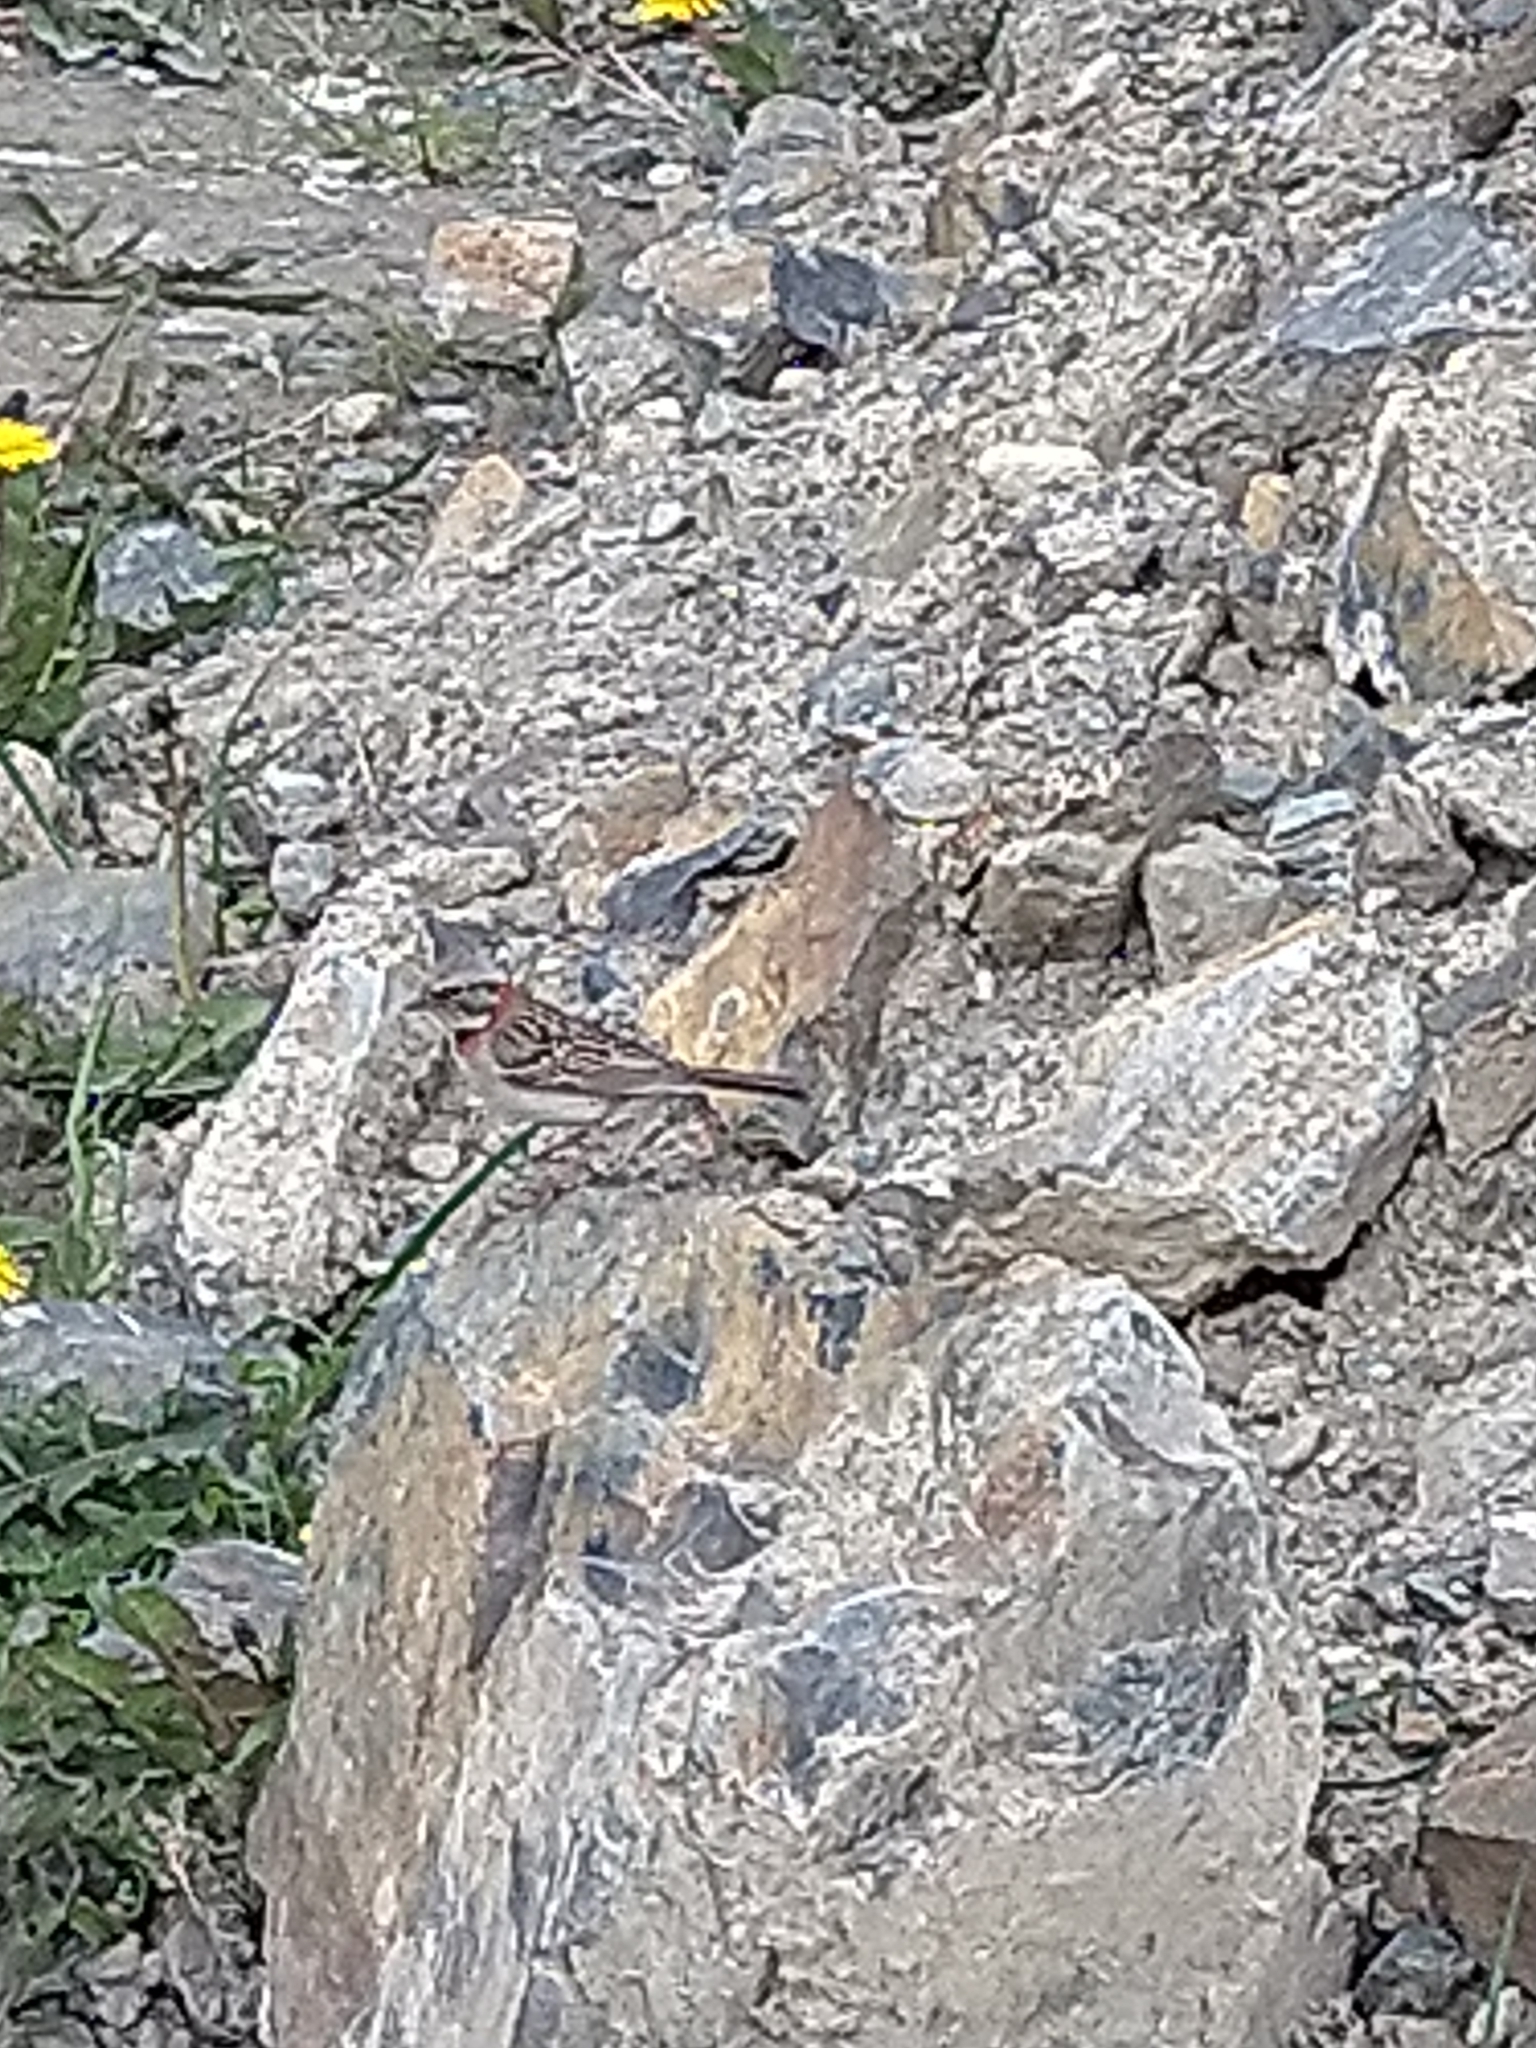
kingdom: Animalia
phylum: Chordata
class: Aves
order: Passeriformes
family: Passerellidae
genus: Zonotrichia
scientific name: Zonotrichia capensis
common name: Rufous-collared sparrow
